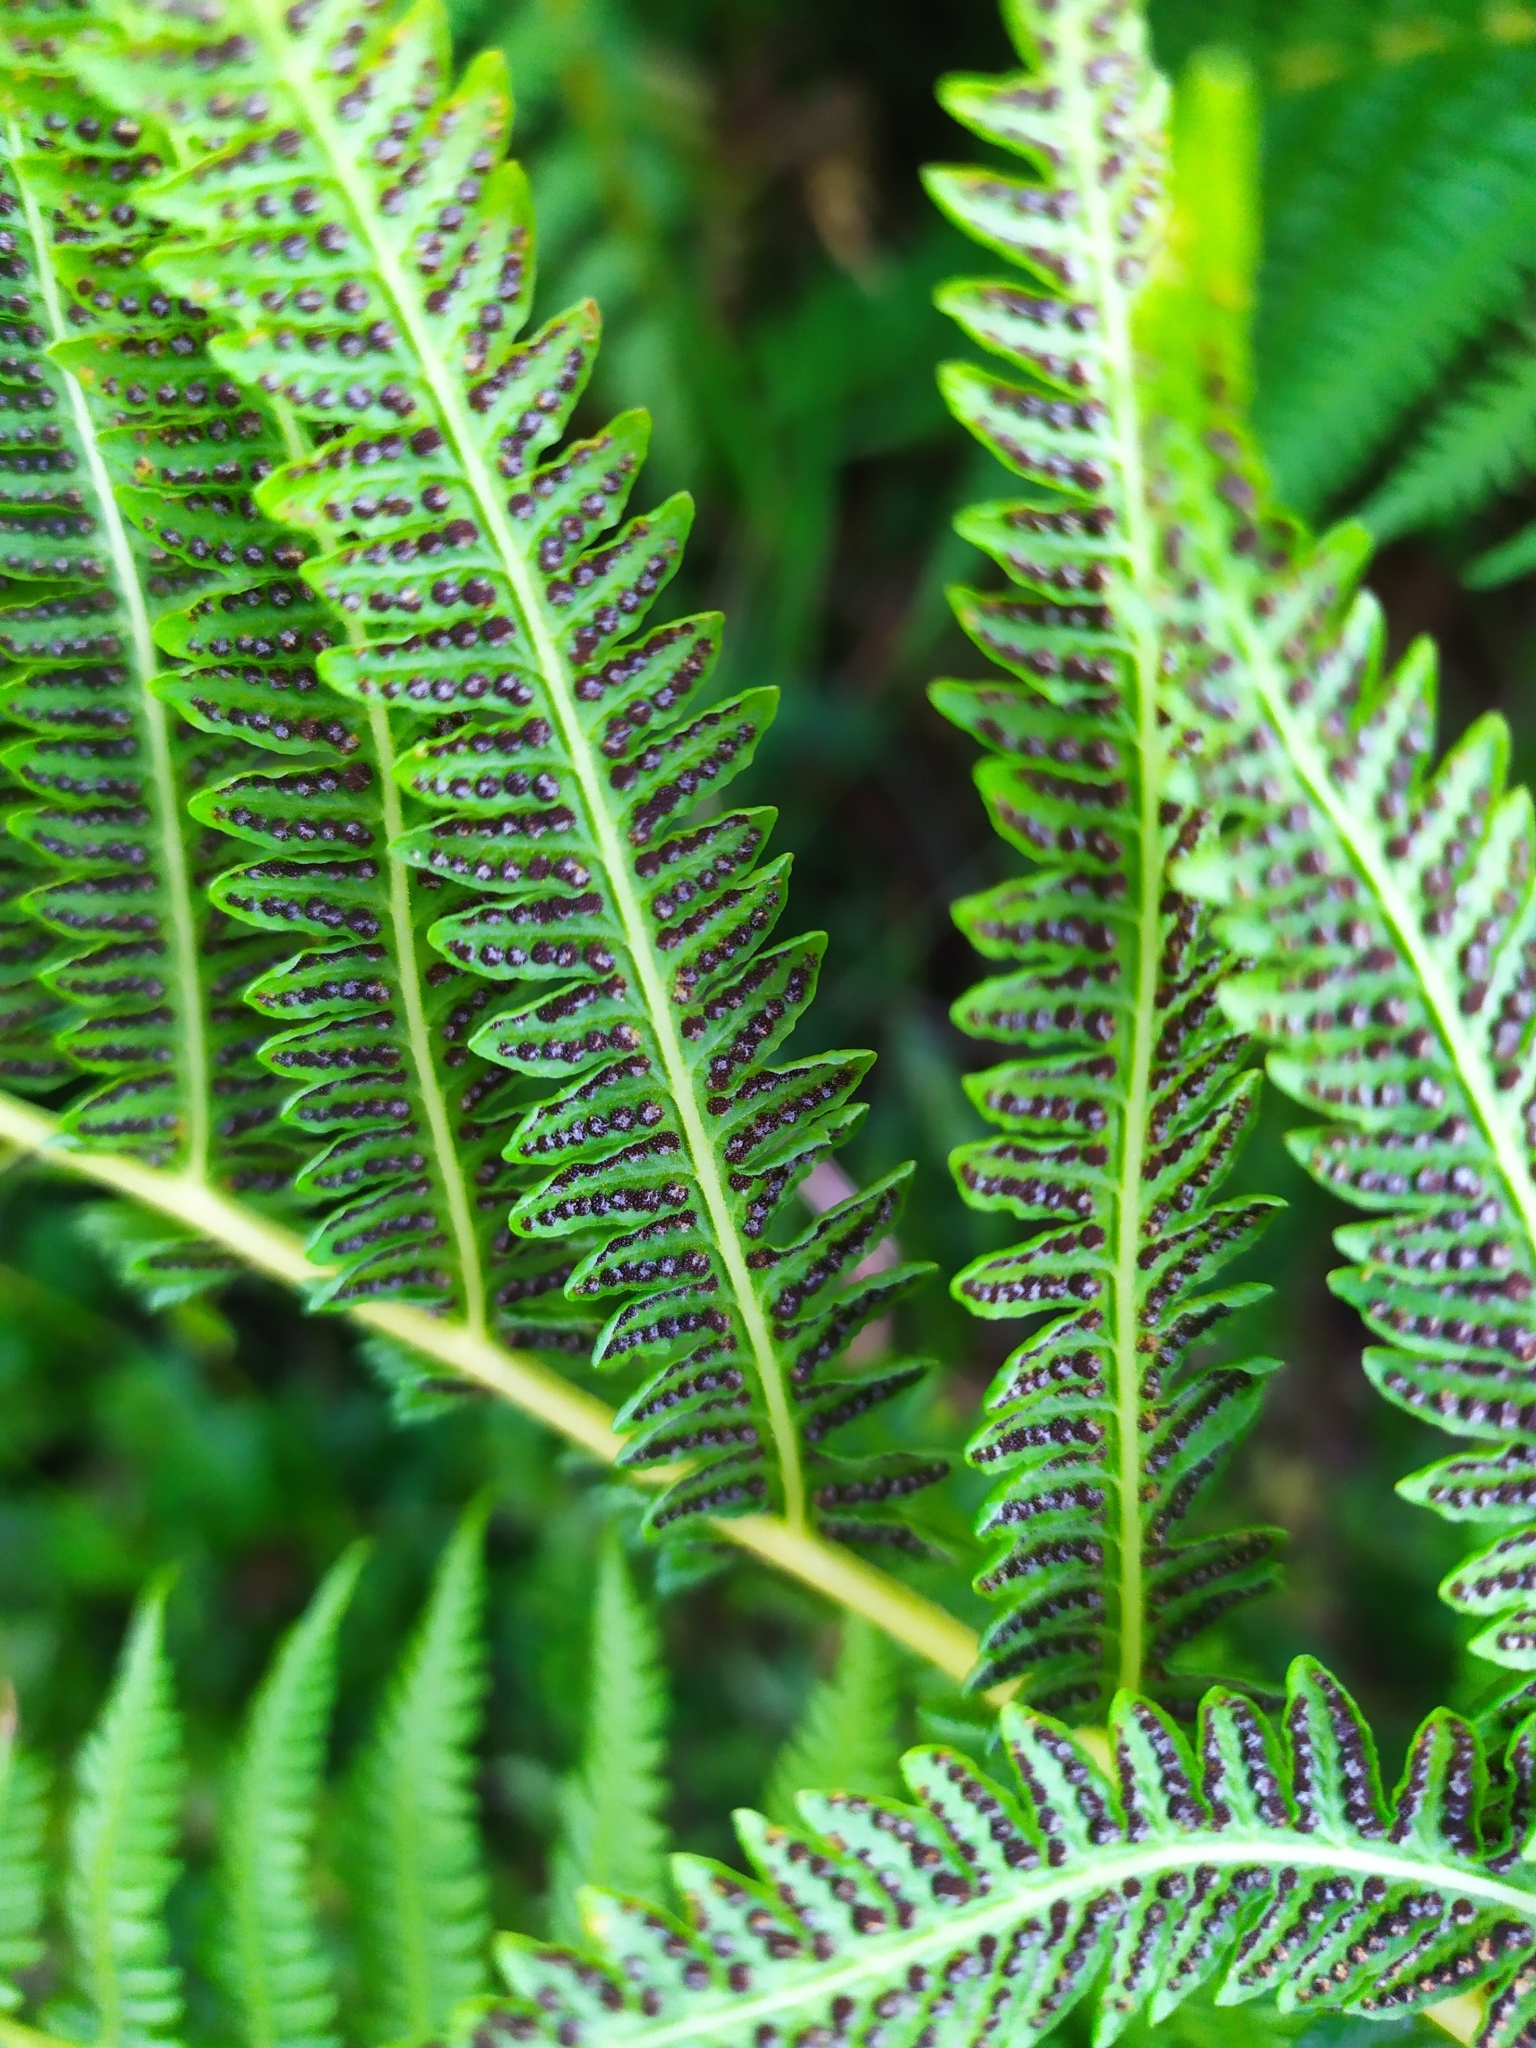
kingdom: Plantae
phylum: Tracheophyta
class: Polypodiopsida
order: Polypodiales
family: Thelypteridaceae
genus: Oreopteris
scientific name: Oreopteris limbosperma
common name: Lemon-scented fern
